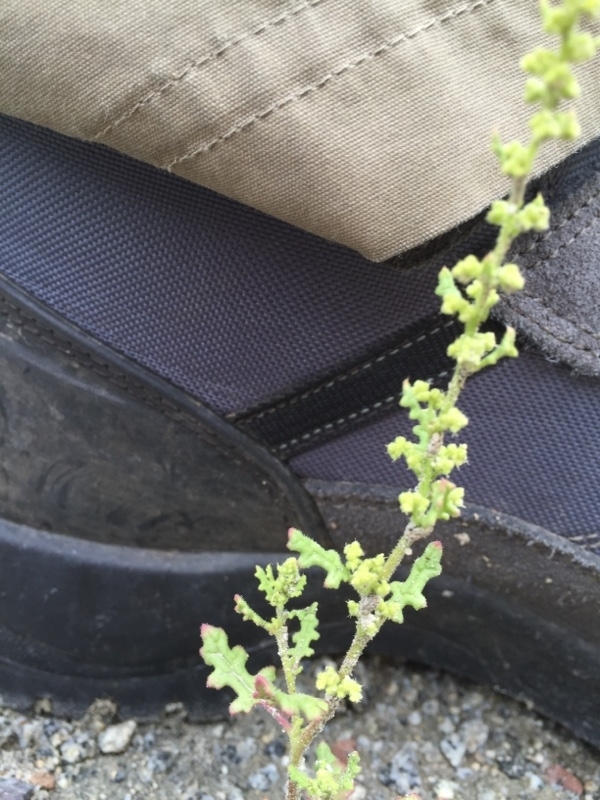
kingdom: Plantae
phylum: Tracheophyta
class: Magnoliopsida
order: Caryophyllales
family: Amaranthaceae
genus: Dysphania
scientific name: Dysphania botrys
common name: Feather-geranium
